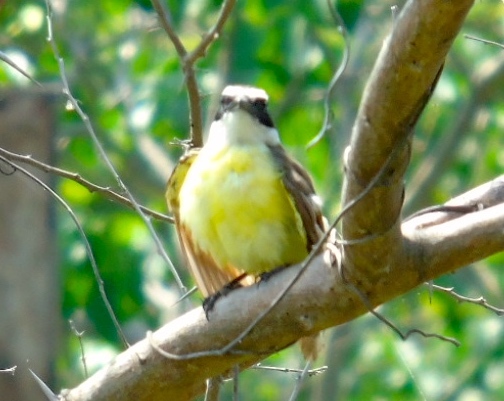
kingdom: Animalia
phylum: Chordata
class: Aves
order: Passeriformes
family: Tyrannidae
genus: Pitangus
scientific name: Pitangus sulphuratus
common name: Great kiskadee
